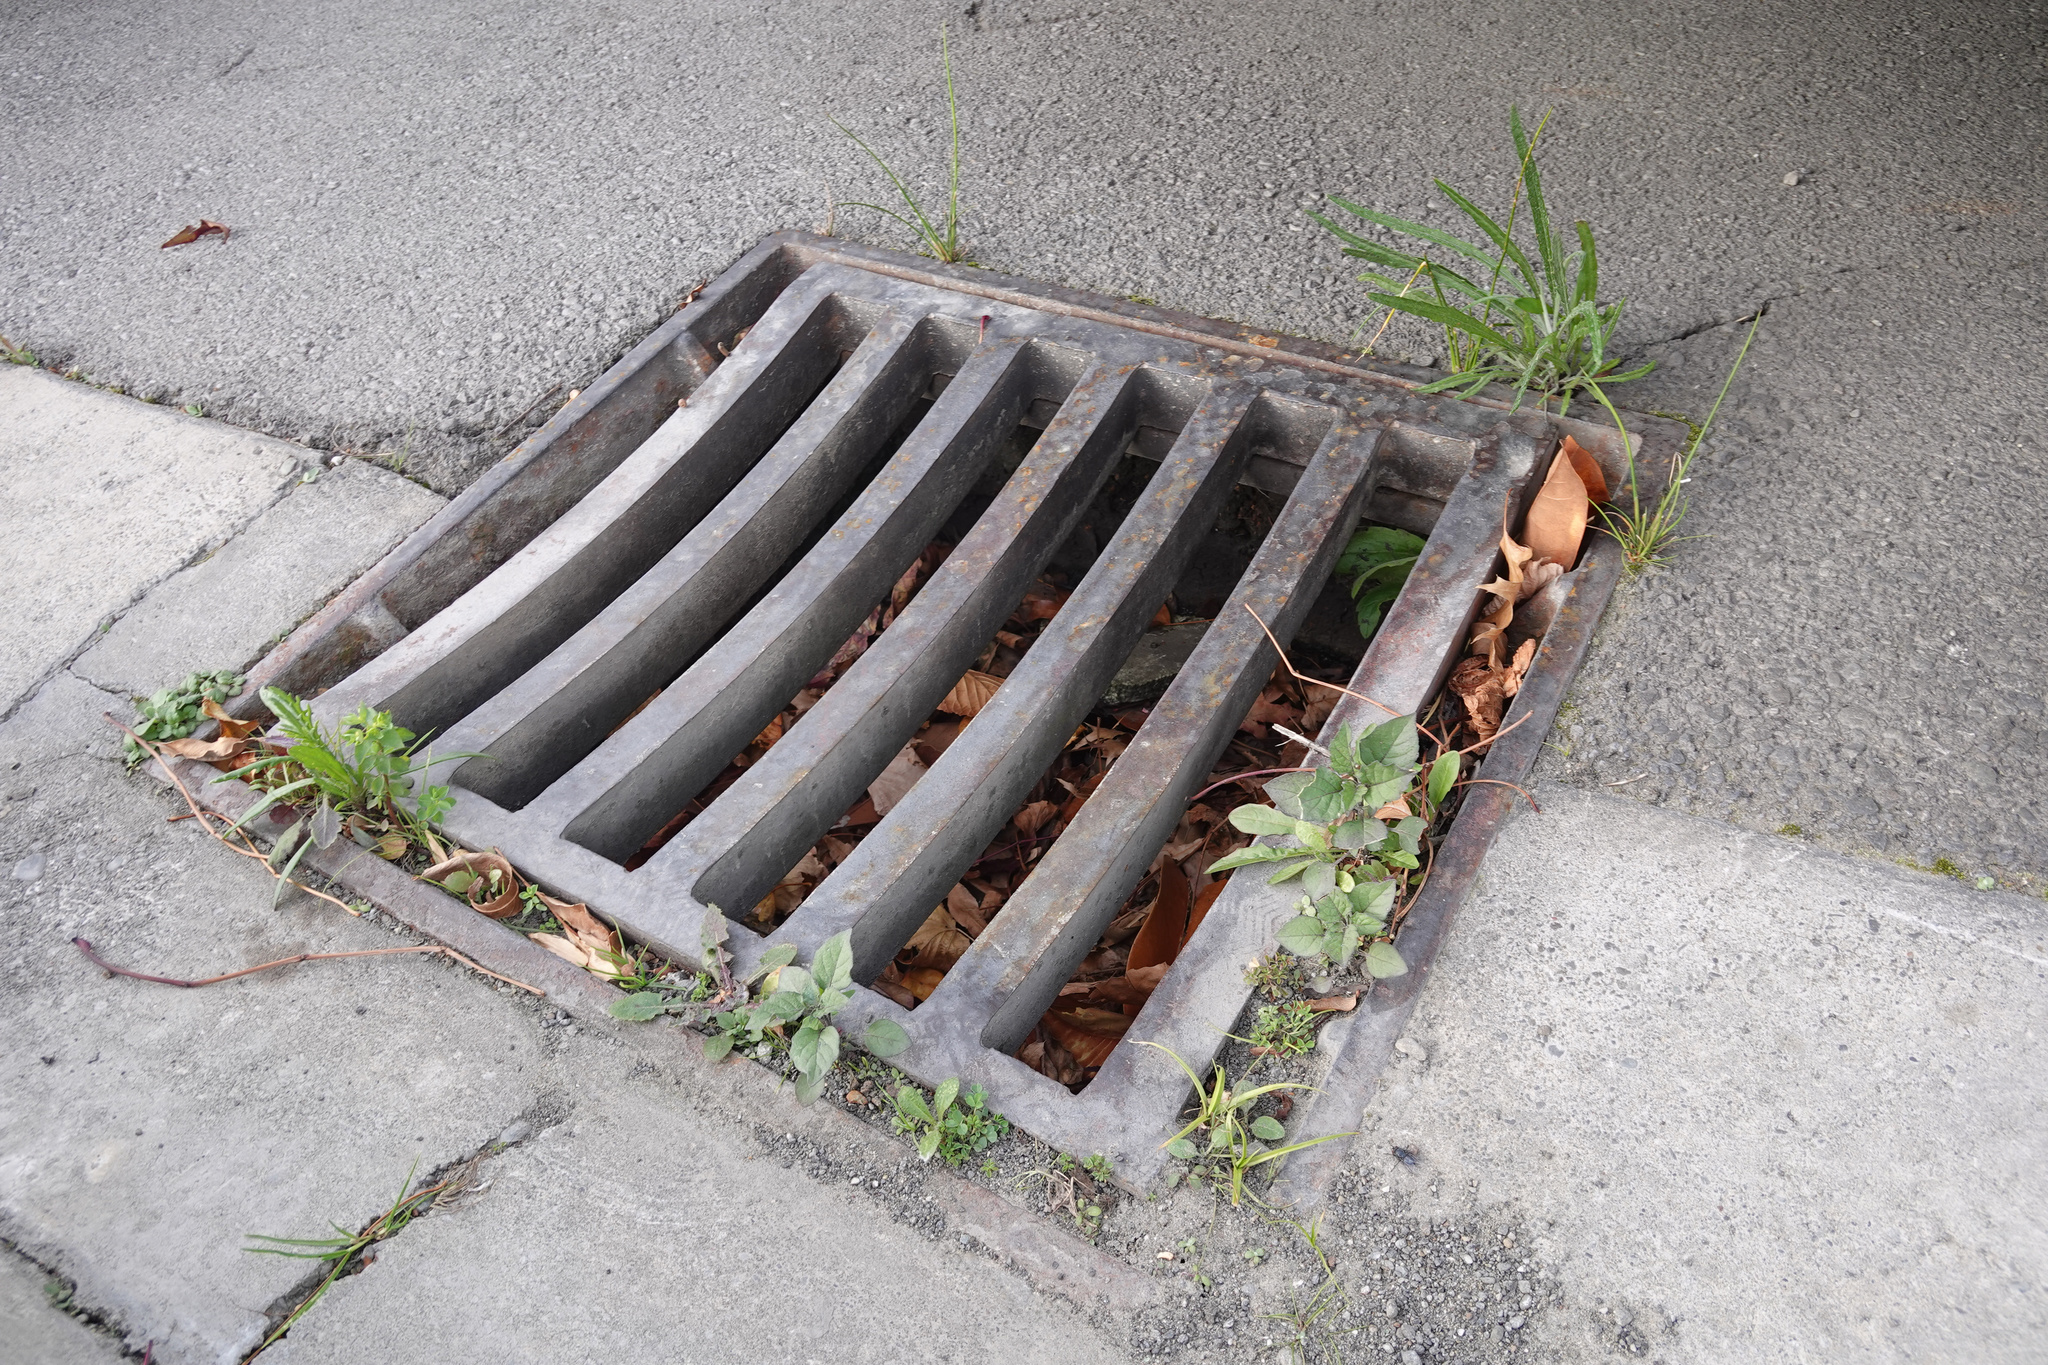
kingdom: Plantae
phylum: Tracheophyta
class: Magnoliopsida
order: Asterales
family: Asteraceae
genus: Senecio
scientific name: Senecio quadridentatus
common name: Cotton fireweed
